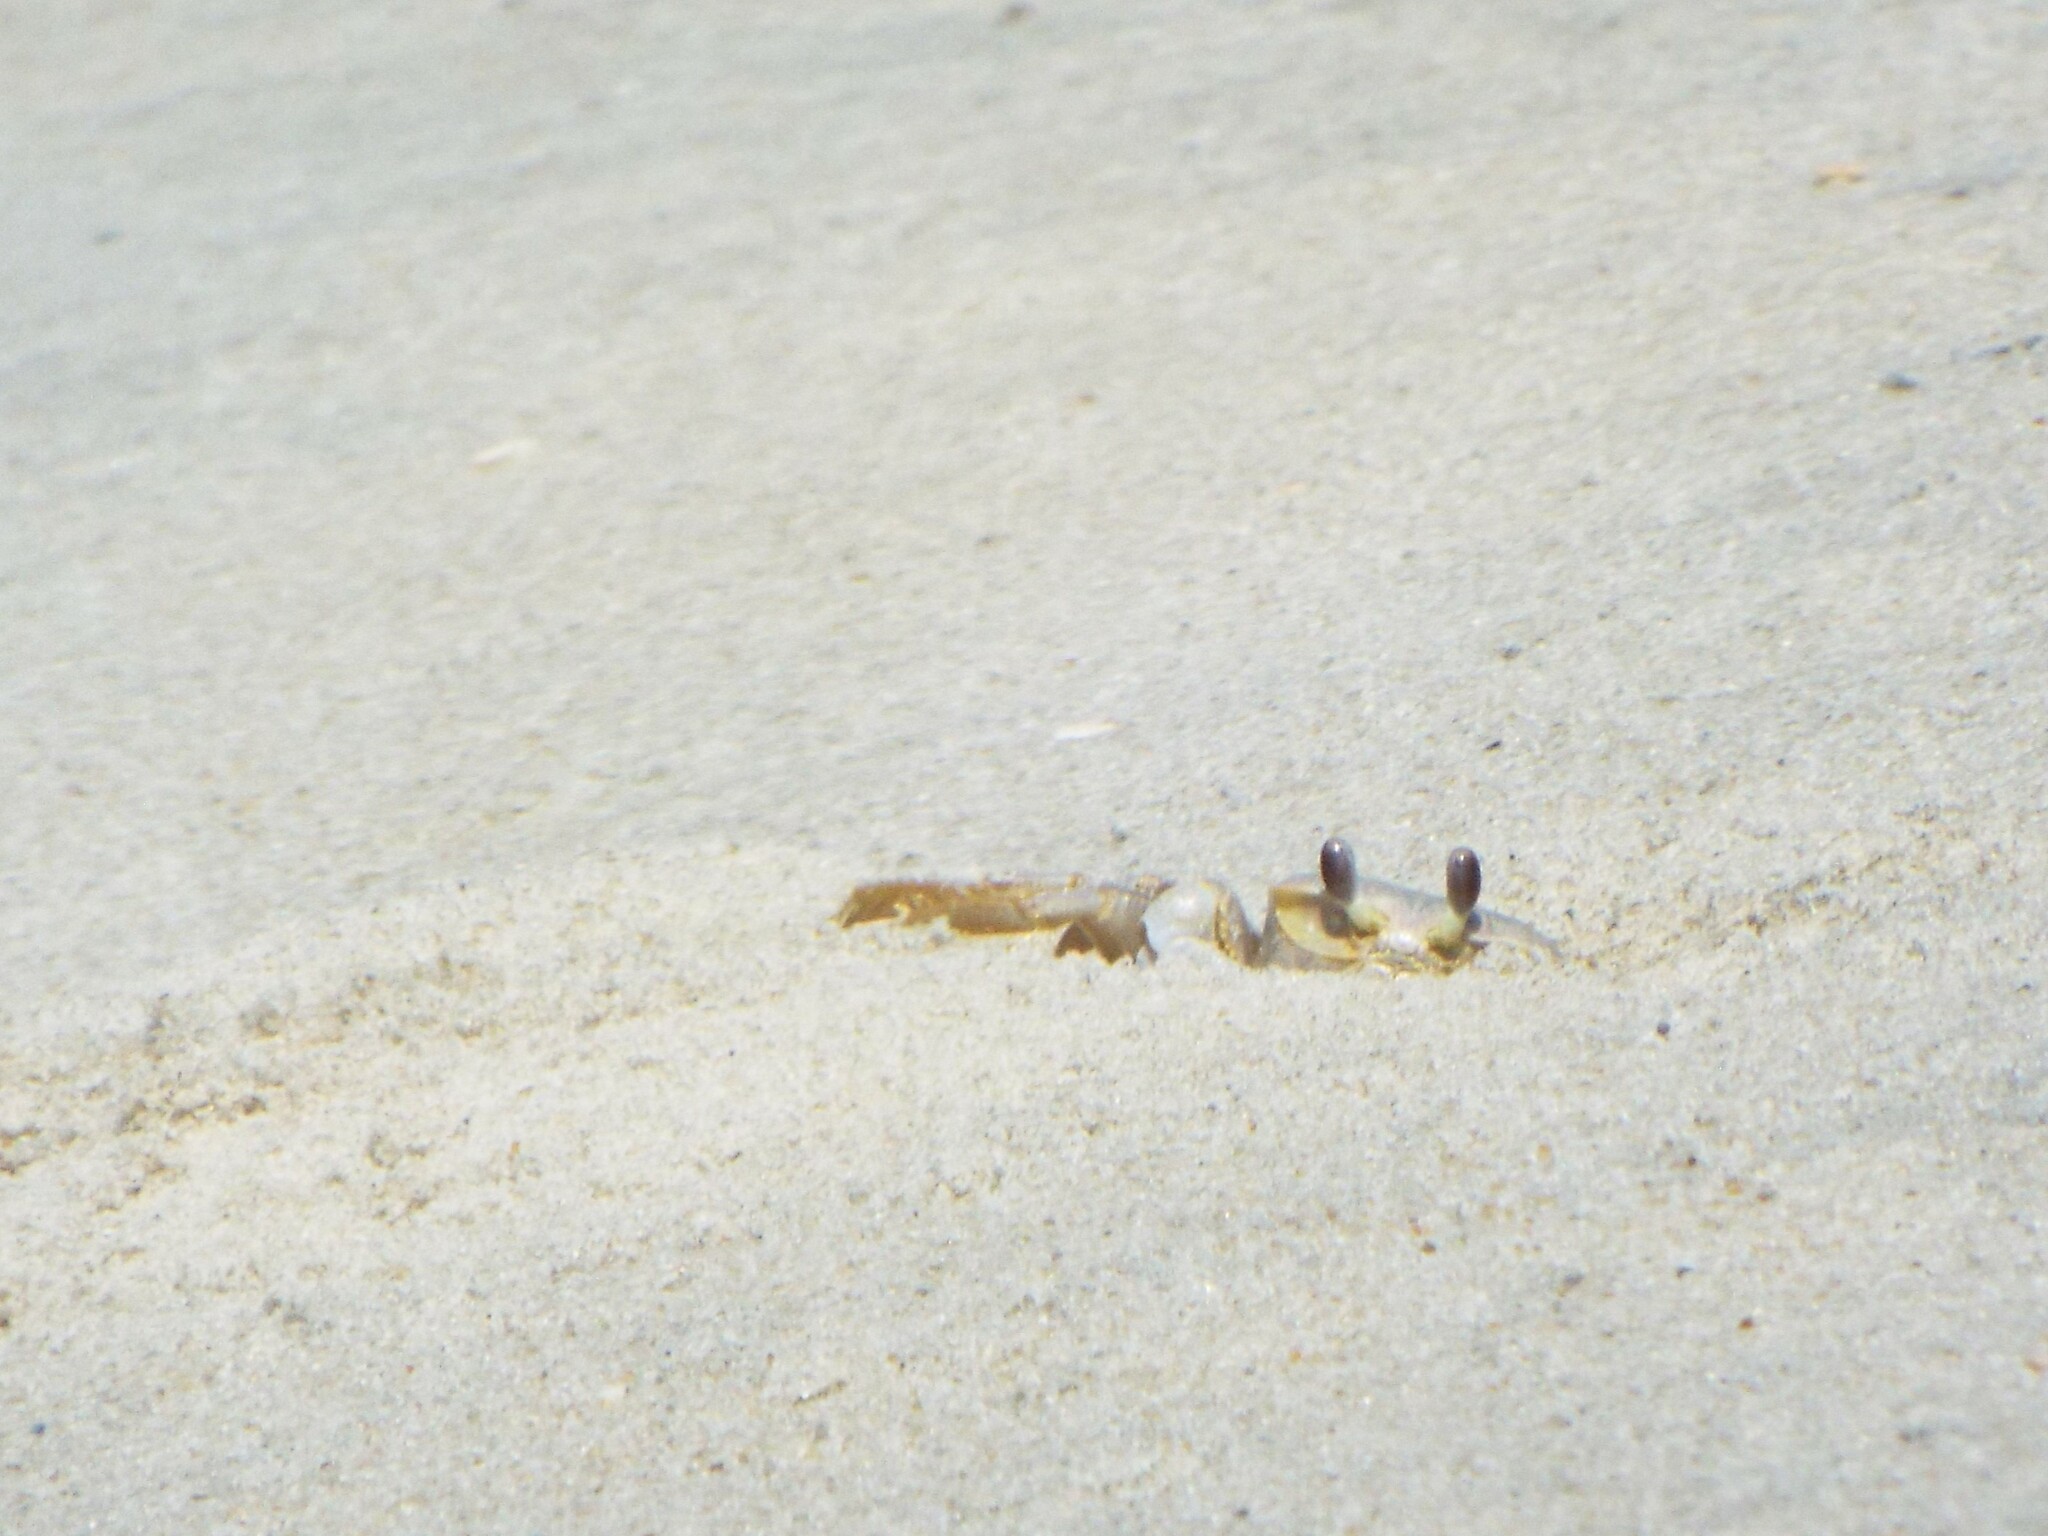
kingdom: Animalia
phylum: Arthropoda
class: Malacostraca
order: Decapoda
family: Ocypodidae
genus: Ocypode
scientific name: Ocypode quadrata
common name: Ghost crab
